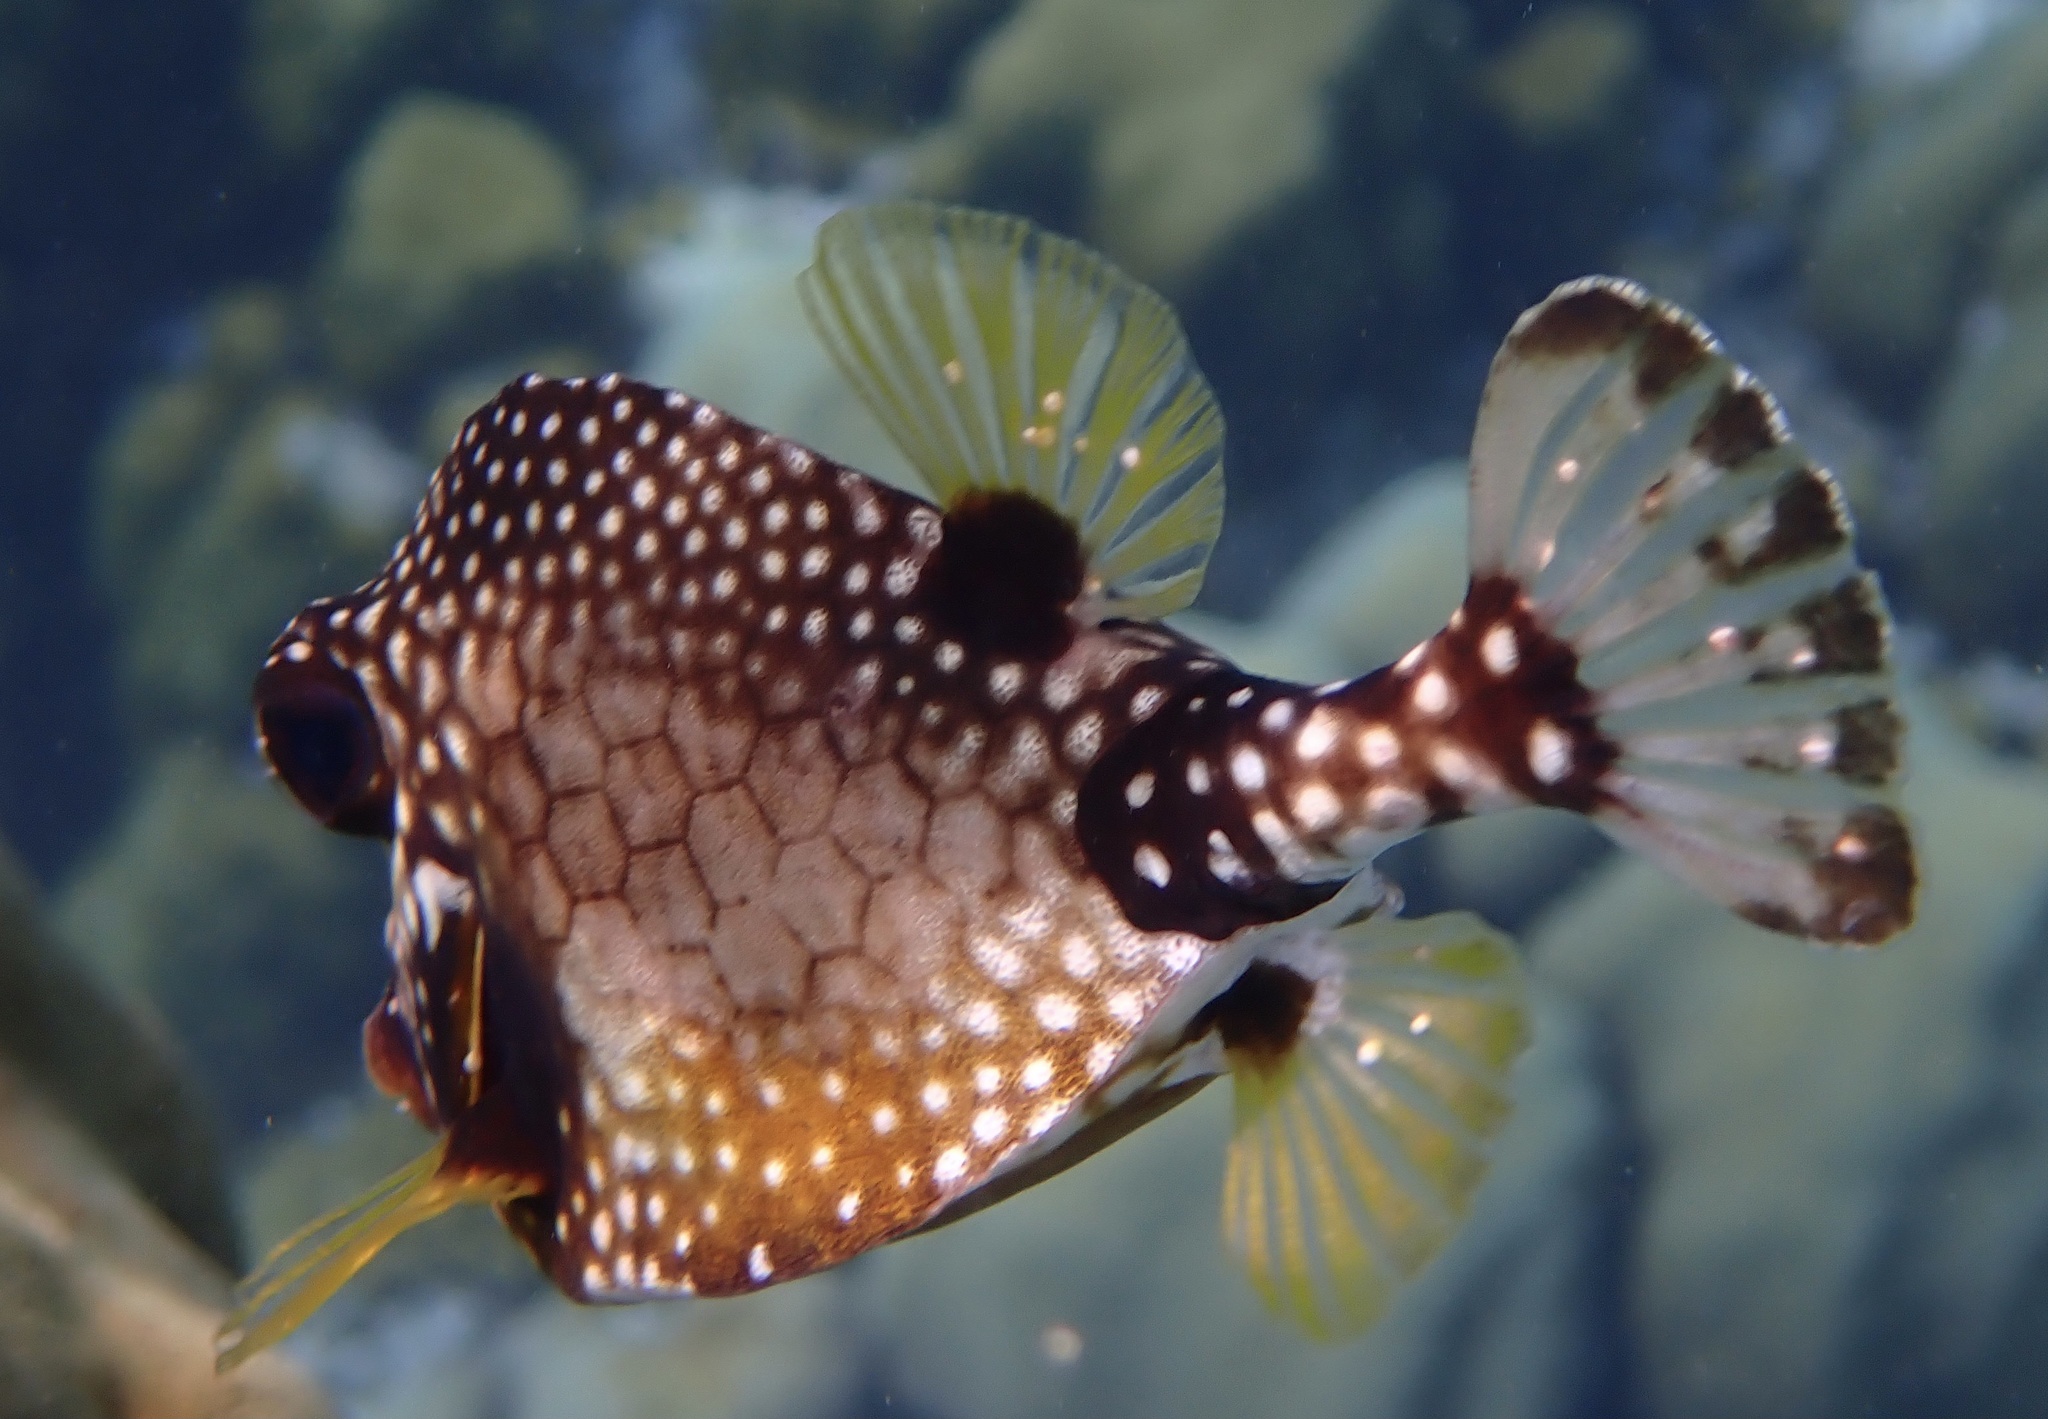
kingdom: Animalia
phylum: Chordata
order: Tetraodontiformes
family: Ostraciidae
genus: Lactophrys
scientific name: Lactophrys triqueter
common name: Smooth trunkfish
